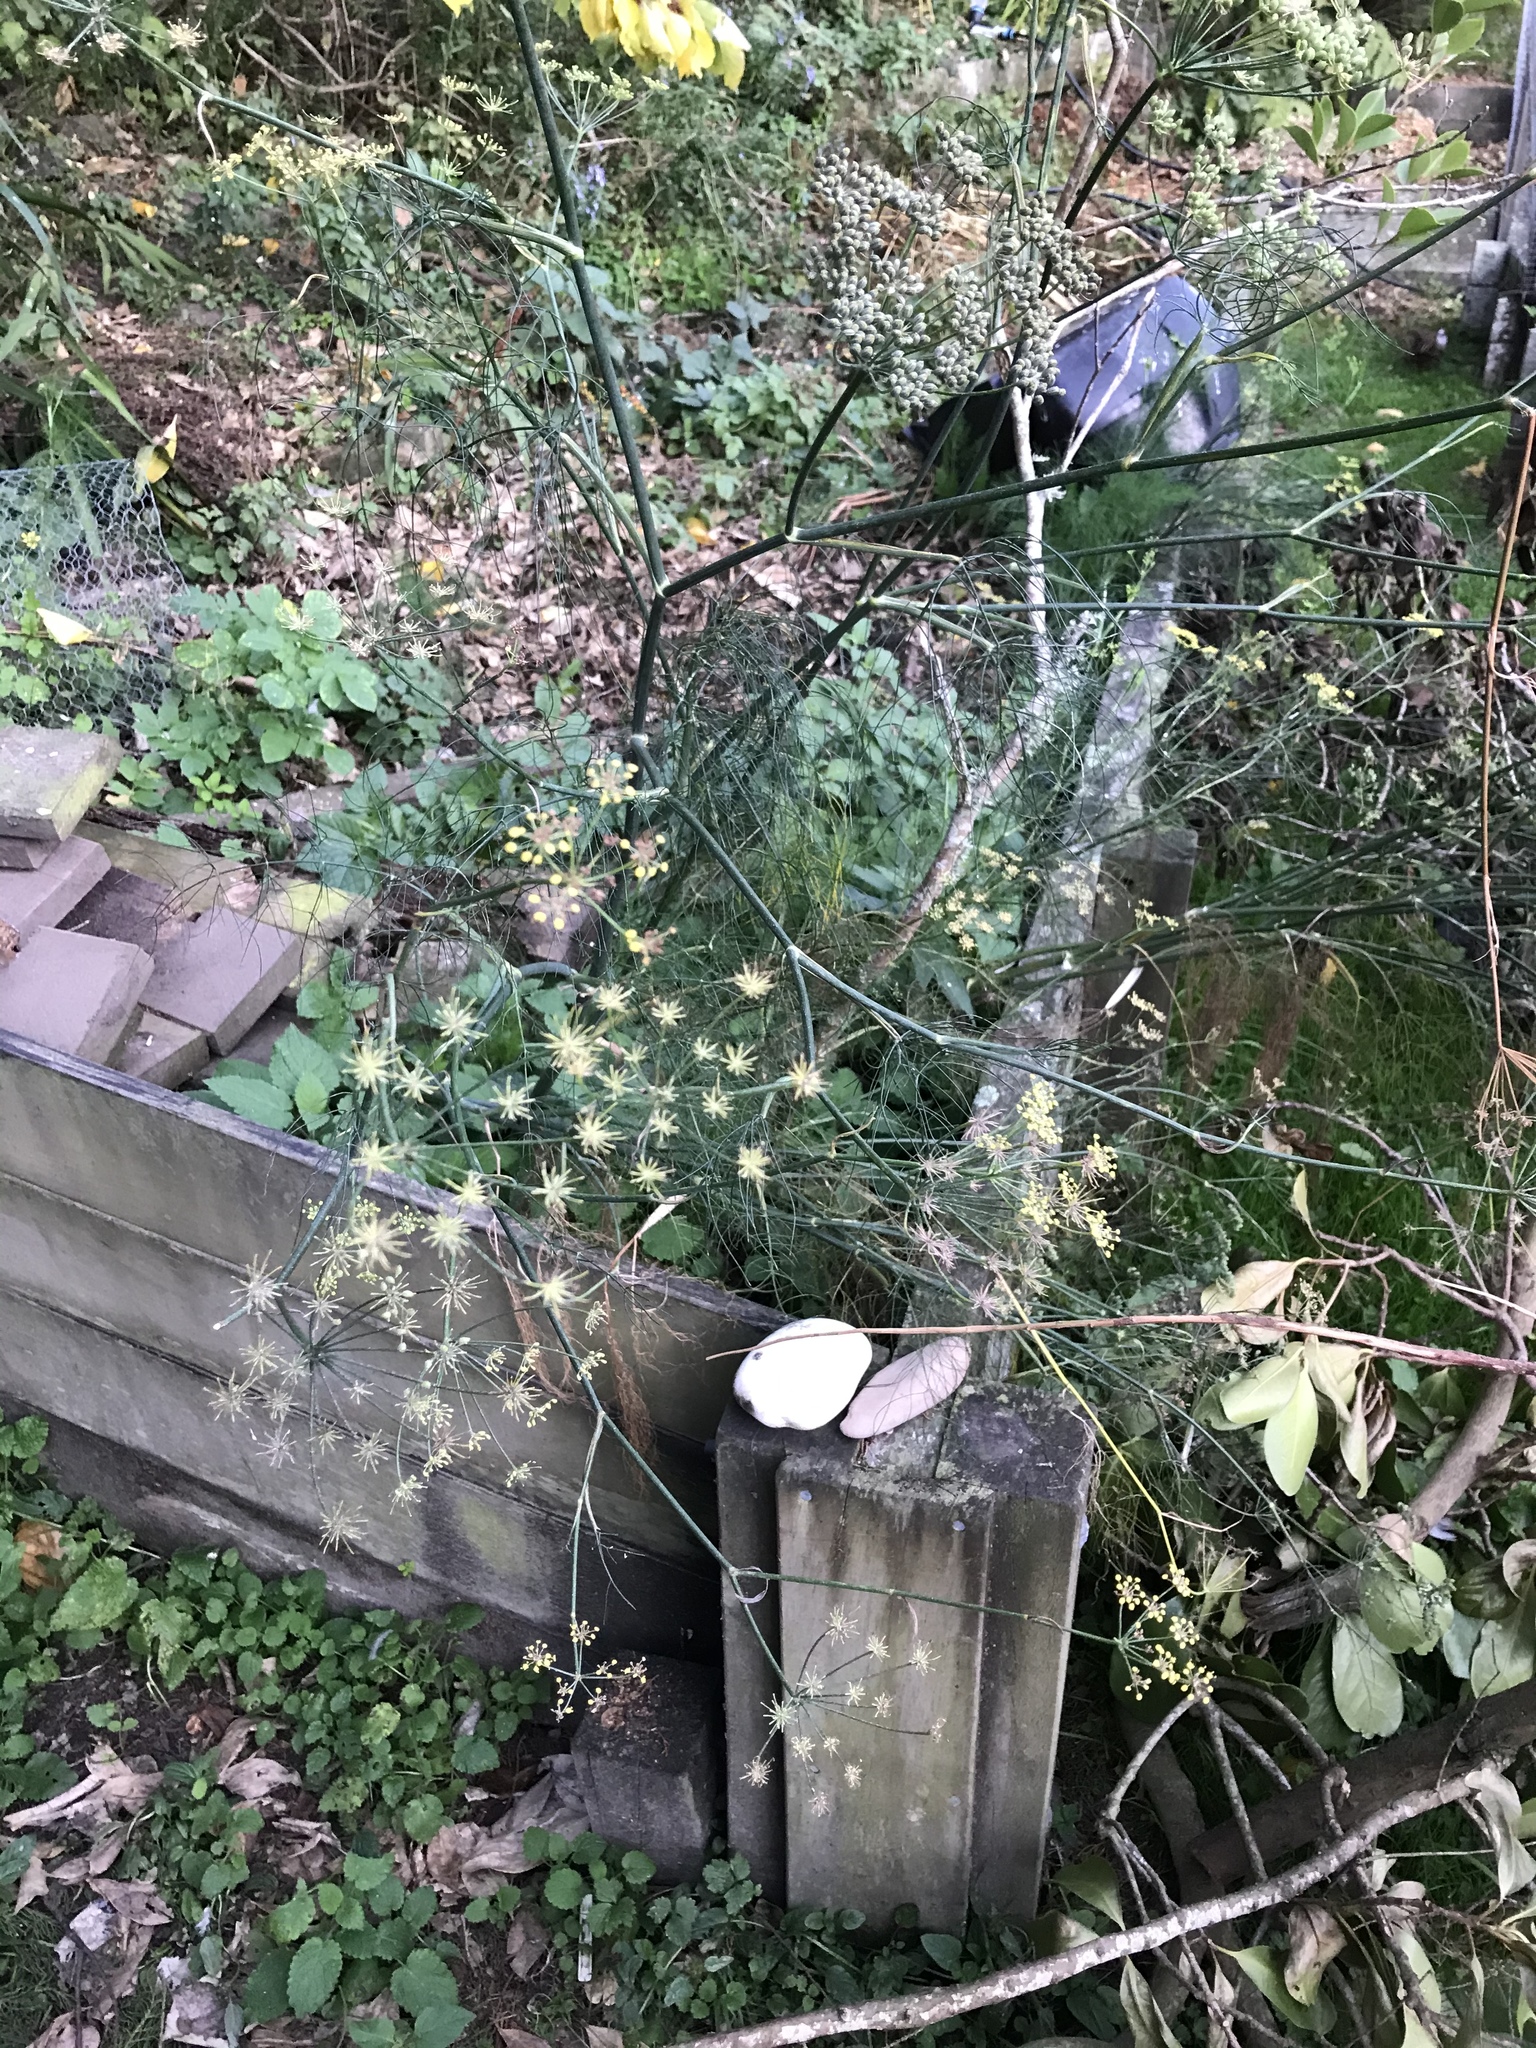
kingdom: Plantae
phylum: Tracheophyta
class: Magnoliopsida
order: Apiales
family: Apiaceae
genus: Foeniculum
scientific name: Foeniculum vulgare
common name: Fennel
